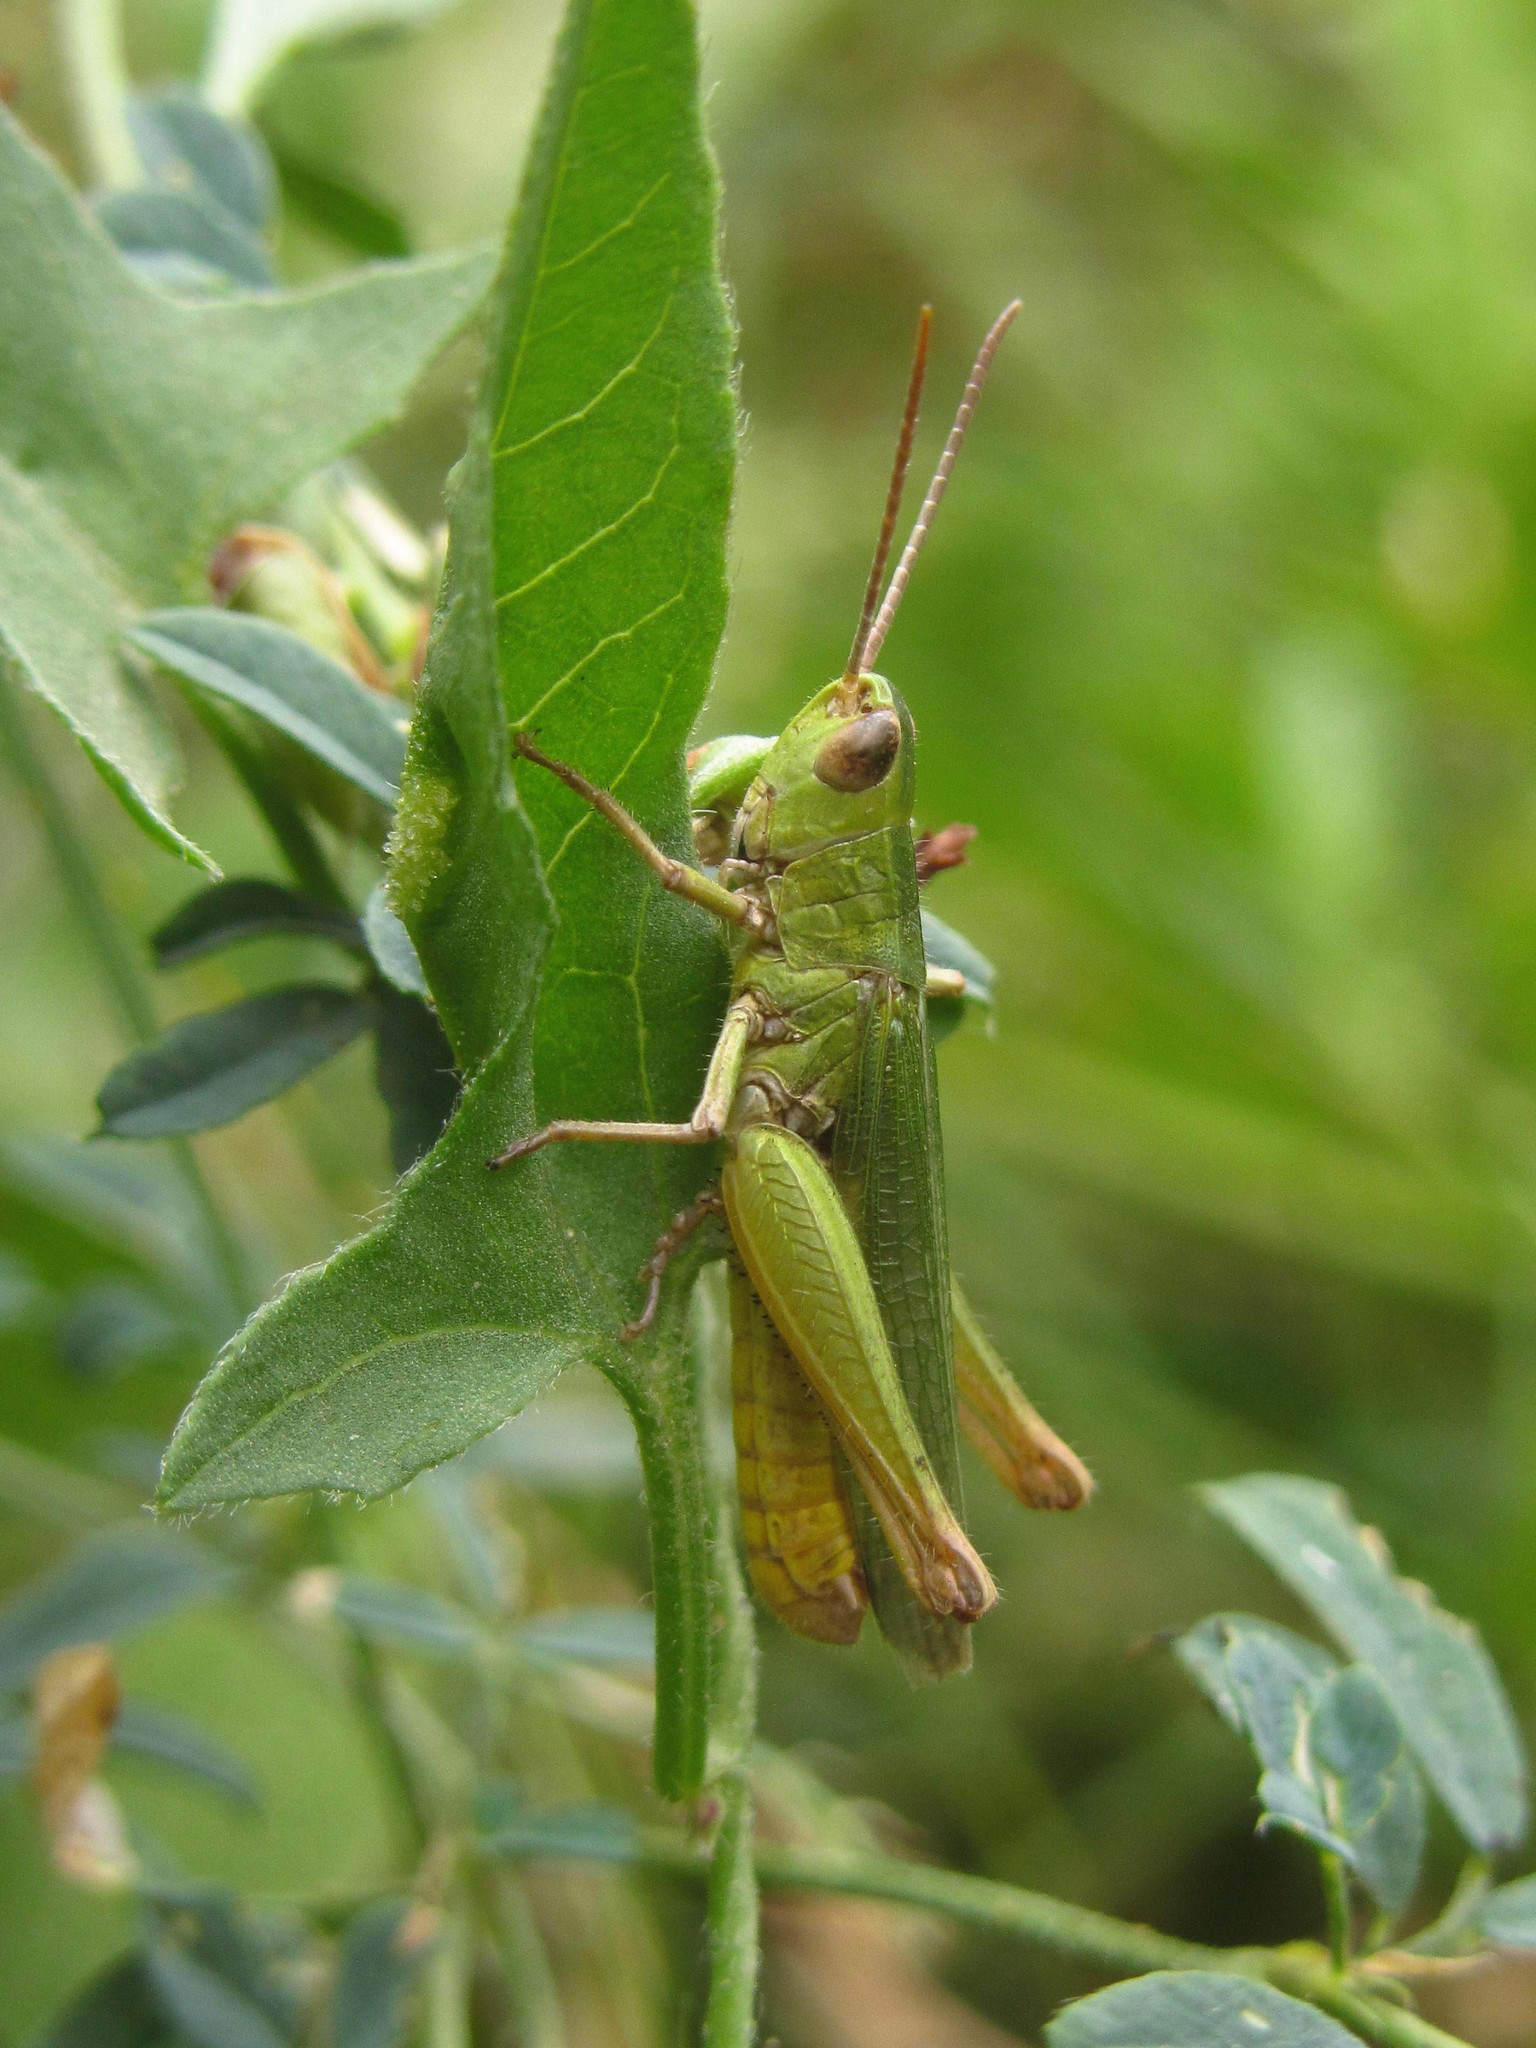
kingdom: Animalia
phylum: Arthropoda
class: Insecta
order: Orthoptera
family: Acrididae
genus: Chorthippus
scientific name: Chorthippus dichrous
